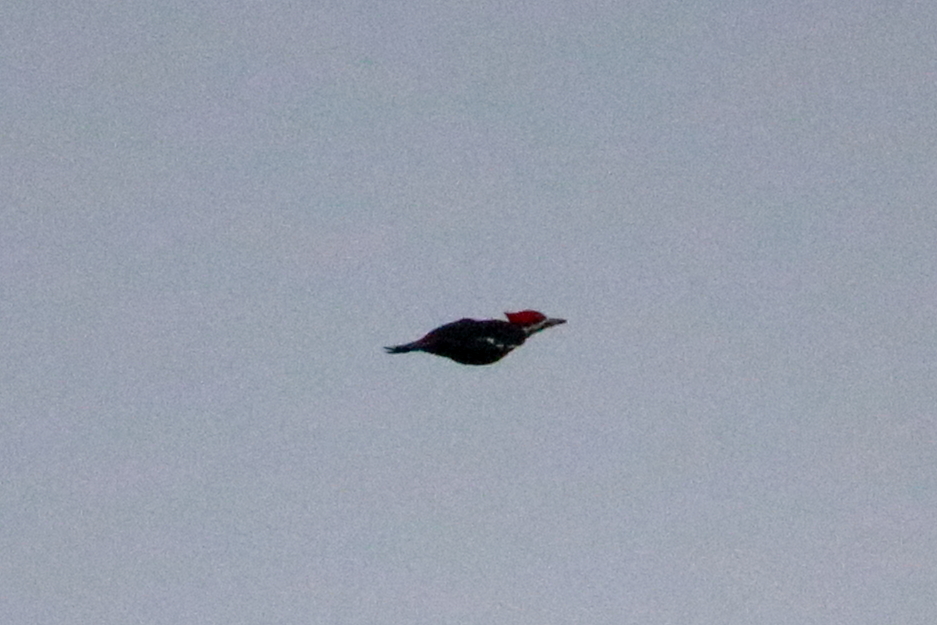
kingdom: Animalia
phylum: Chordata
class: Aves
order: Piciformes
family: Picidae
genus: Dryocopus
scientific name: Dryocopus pileatus
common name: Pileated woodpecker
